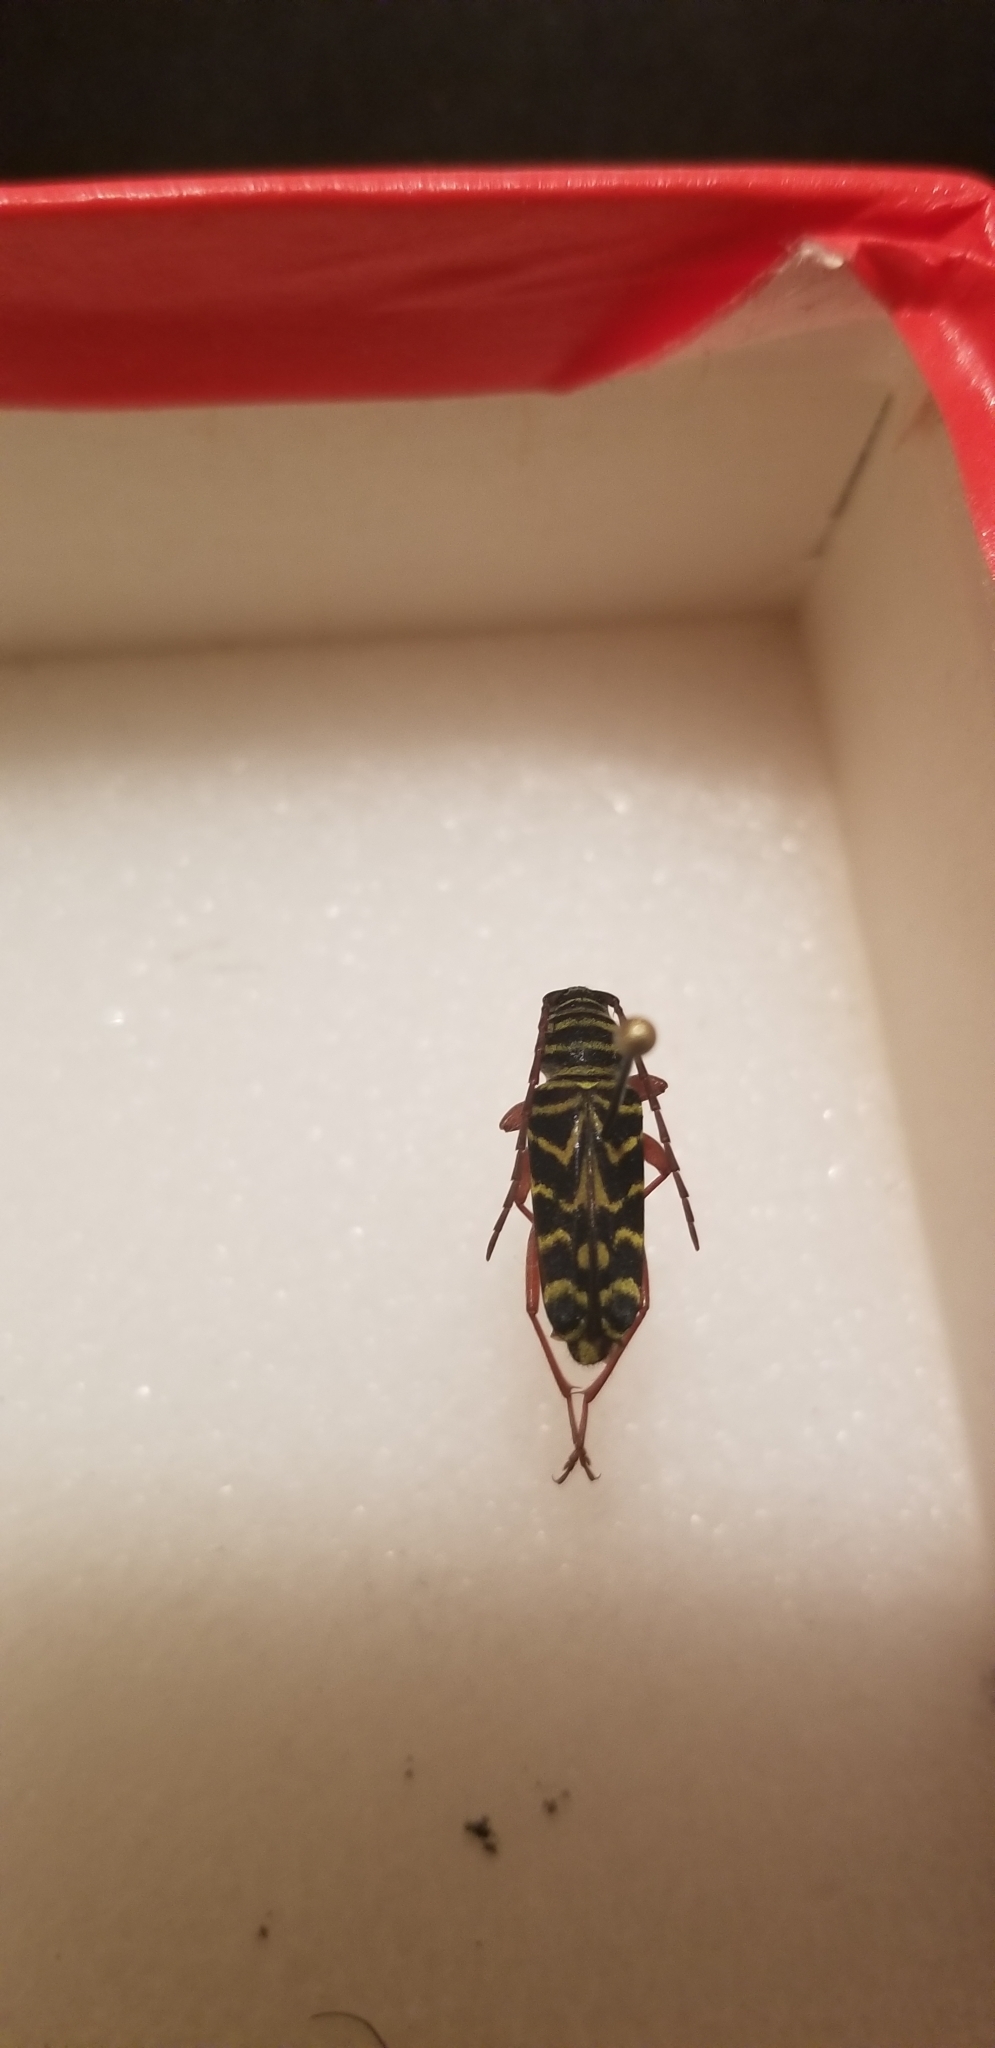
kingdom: Animalia
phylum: Arthropoda
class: Insecta
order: Coleoptera
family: Cerambycidae
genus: Megacyllene
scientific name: Megacyllene robiniae
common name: Locust borer
